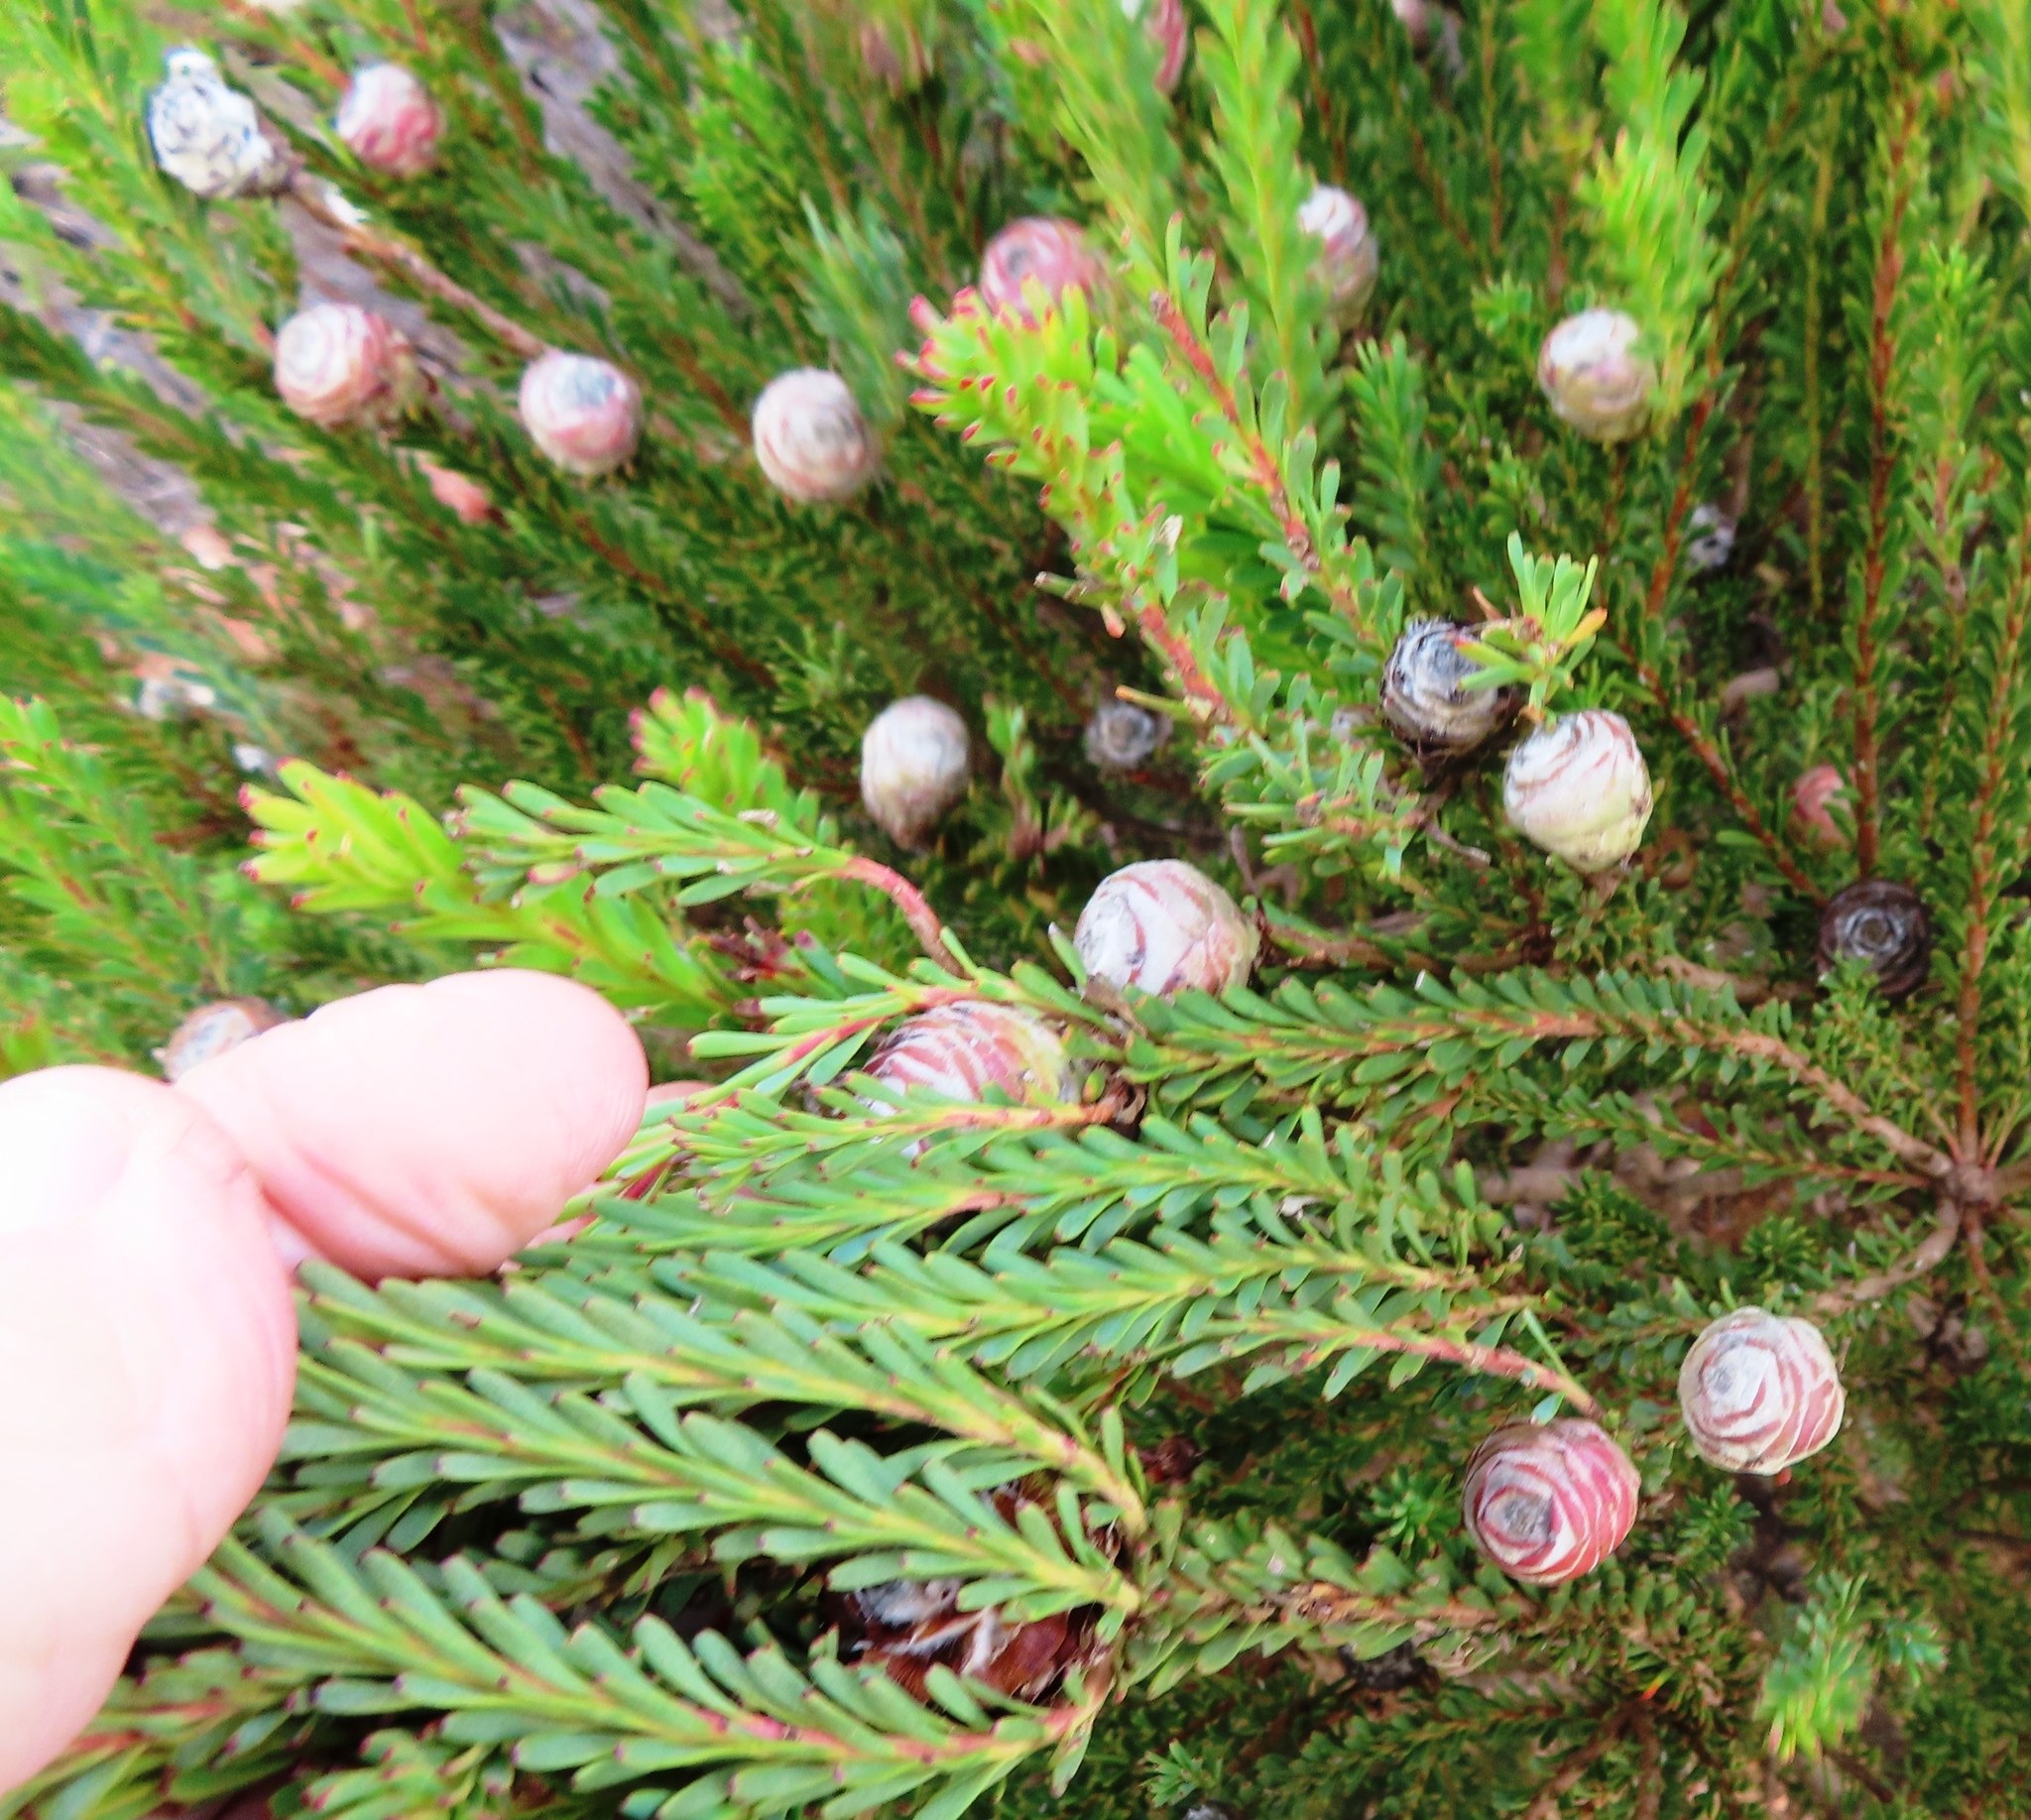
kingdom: Plantae
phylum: Tracheophyta
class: Magnoliopsida
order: Proteales
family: Proteaceae
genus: Leucadendron
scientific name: Leucadendron linifolium
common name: Line-leaf conebush
